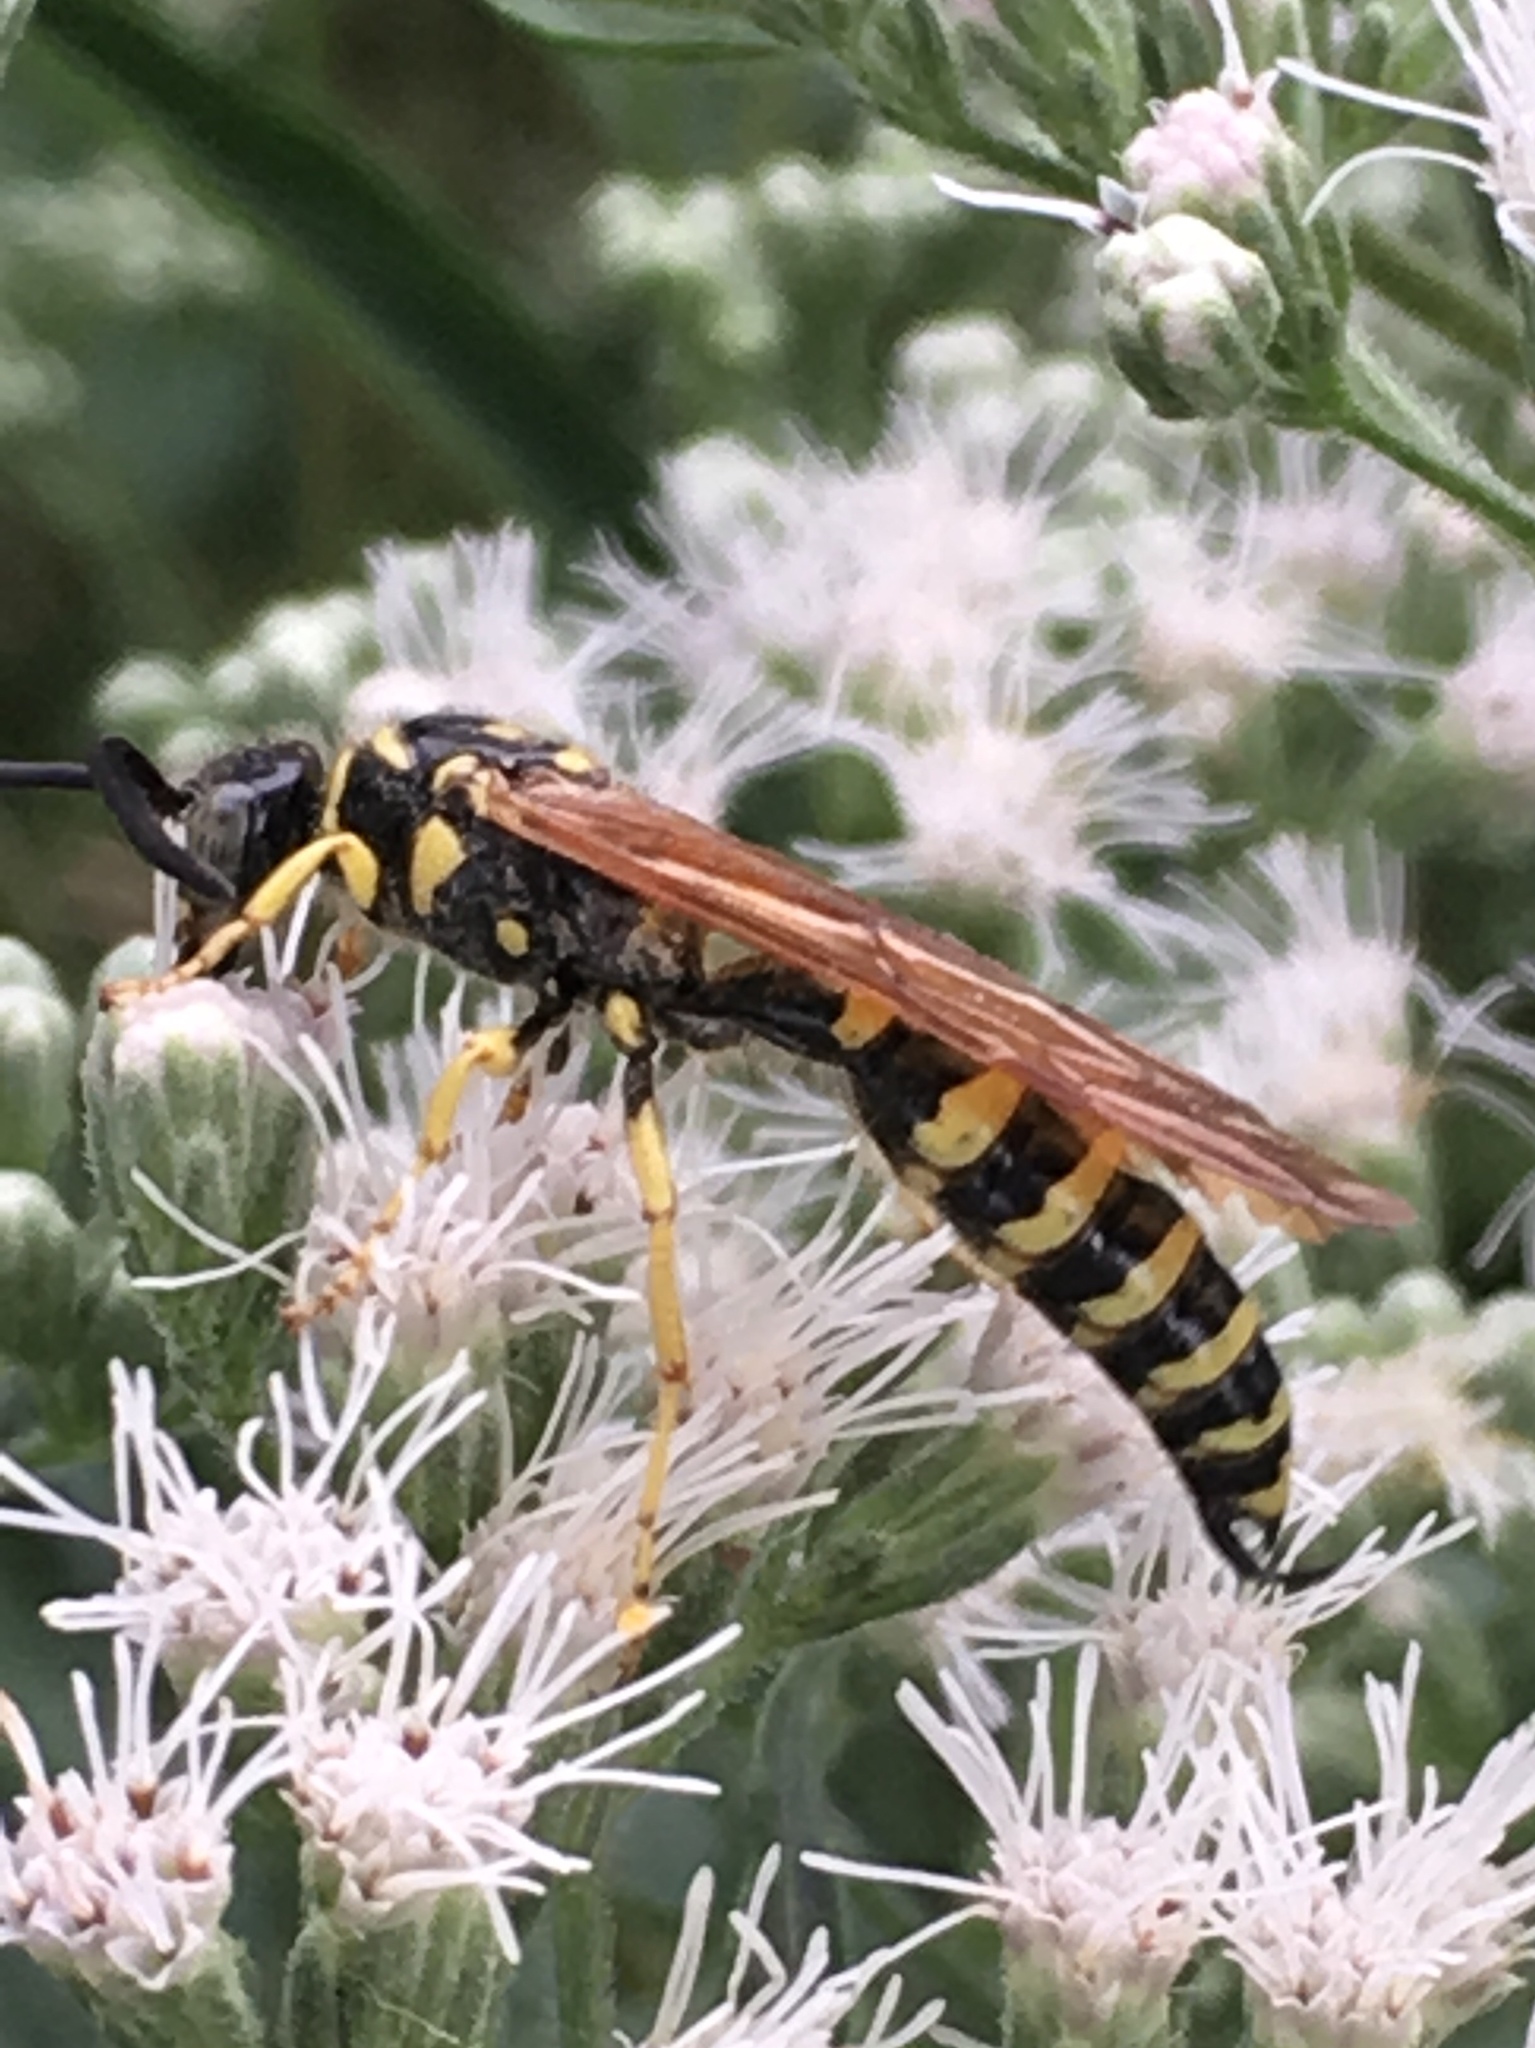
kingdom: Animalia
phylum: Arthropoda
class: Insecta
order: Hymenoptera
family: Tiphiidae
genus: Myzinum
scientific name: Myzinum quinquecinctum
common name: Five-banded thynnid wasp
